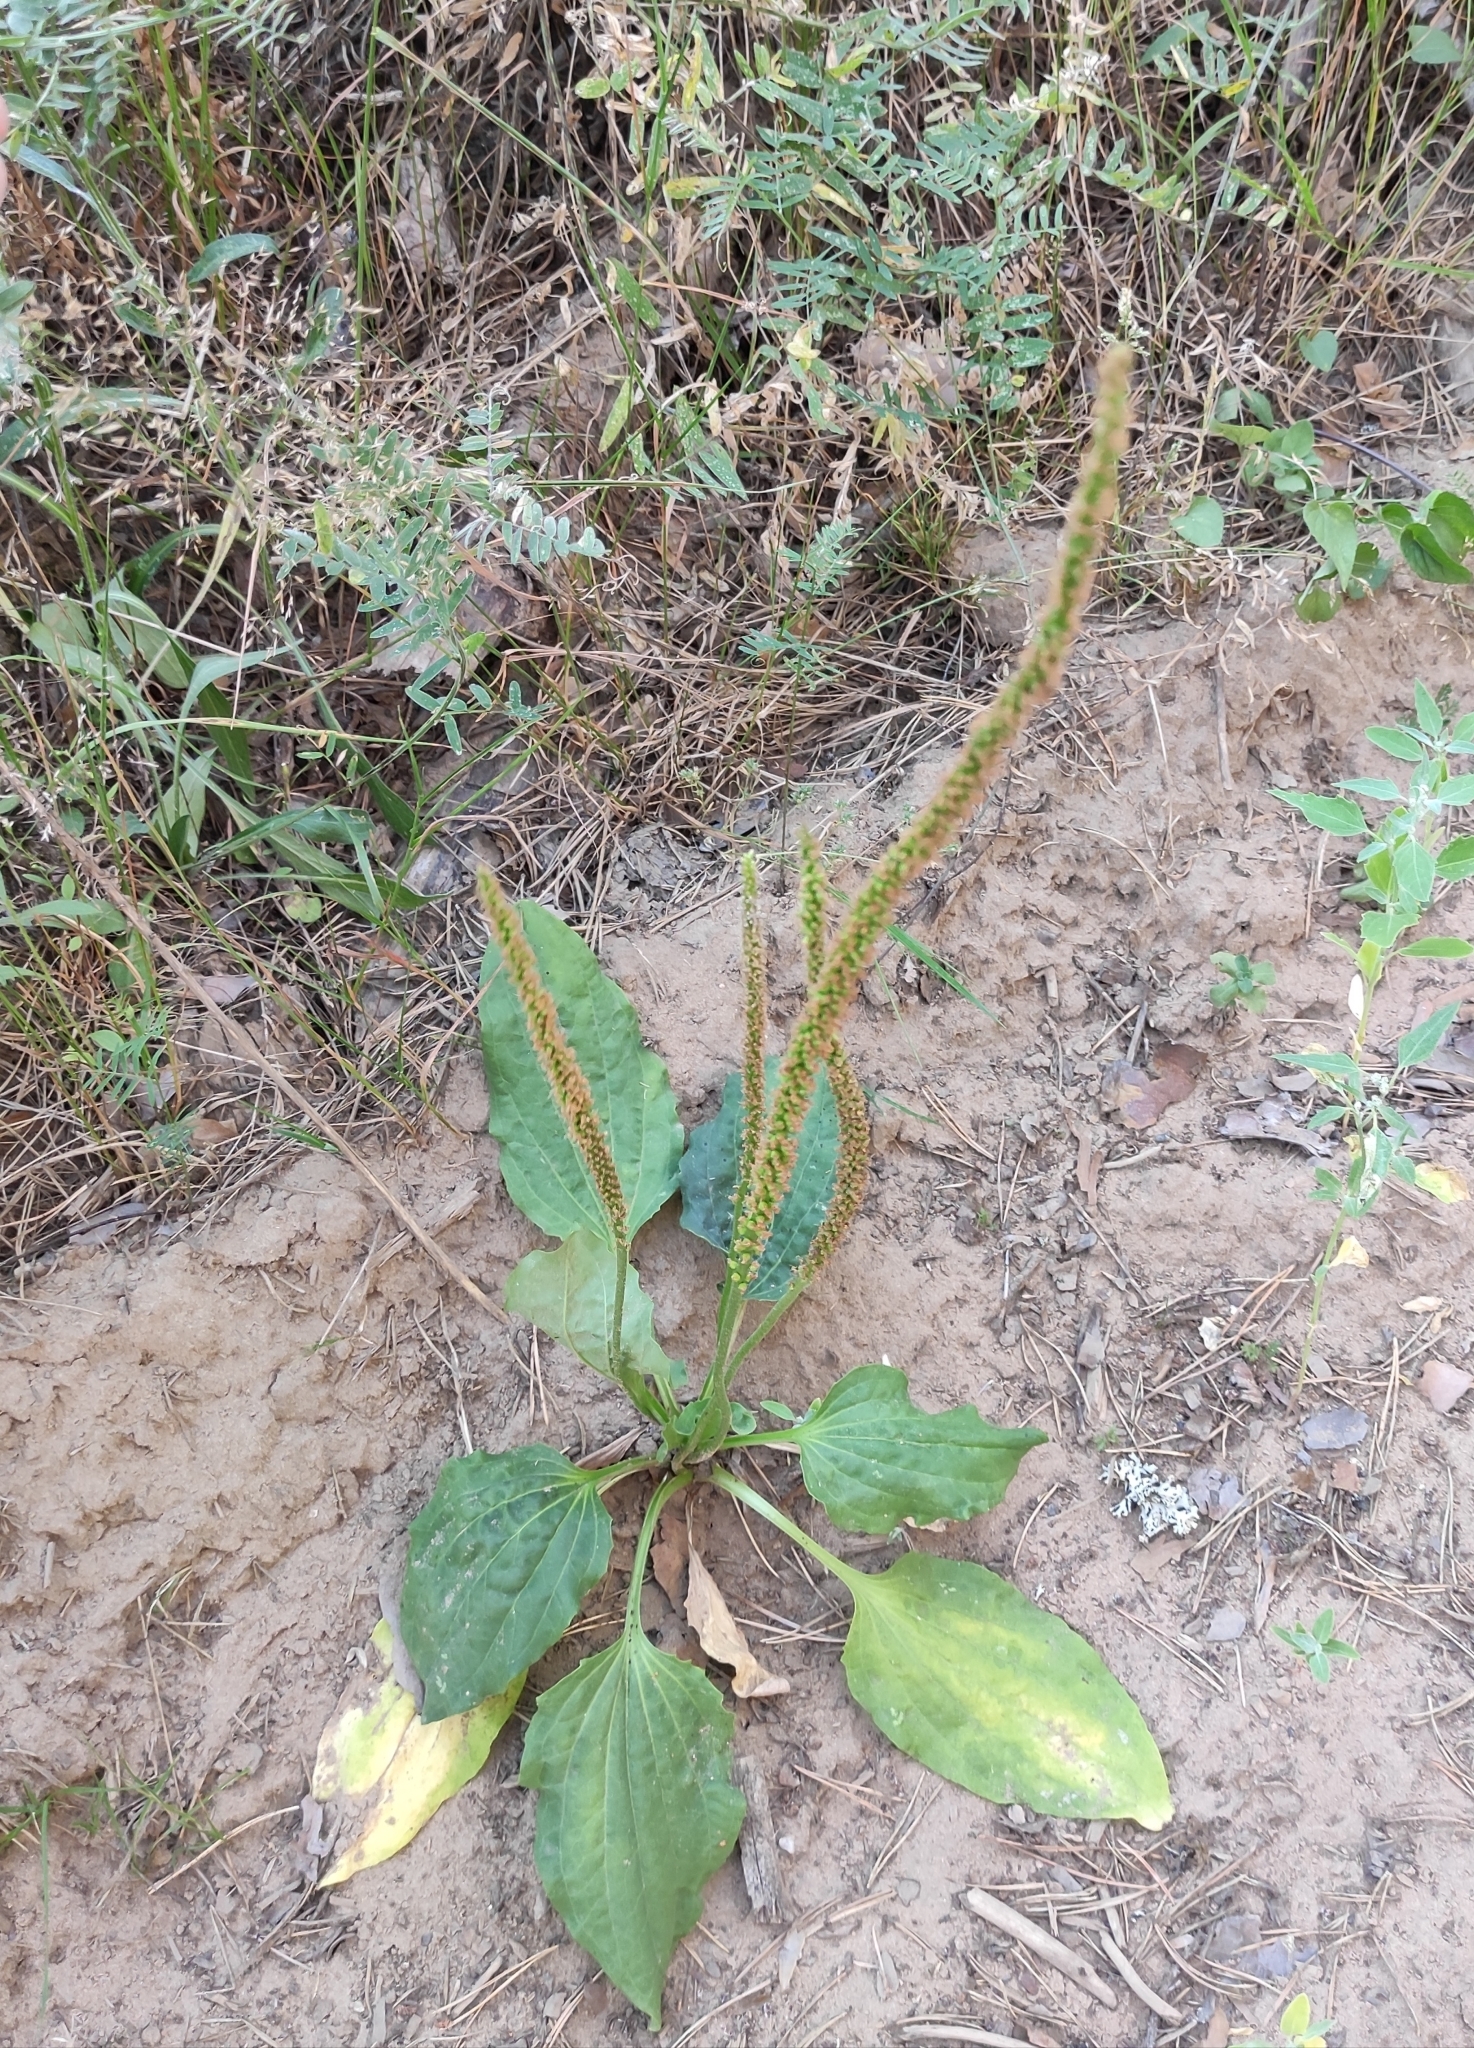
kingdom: Plantae
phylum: Tracheophyta
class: Magnoliopsida
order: Lamiales
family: Plantaginaceae
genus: Plantago
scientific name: Plantago major
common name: Common plantain
